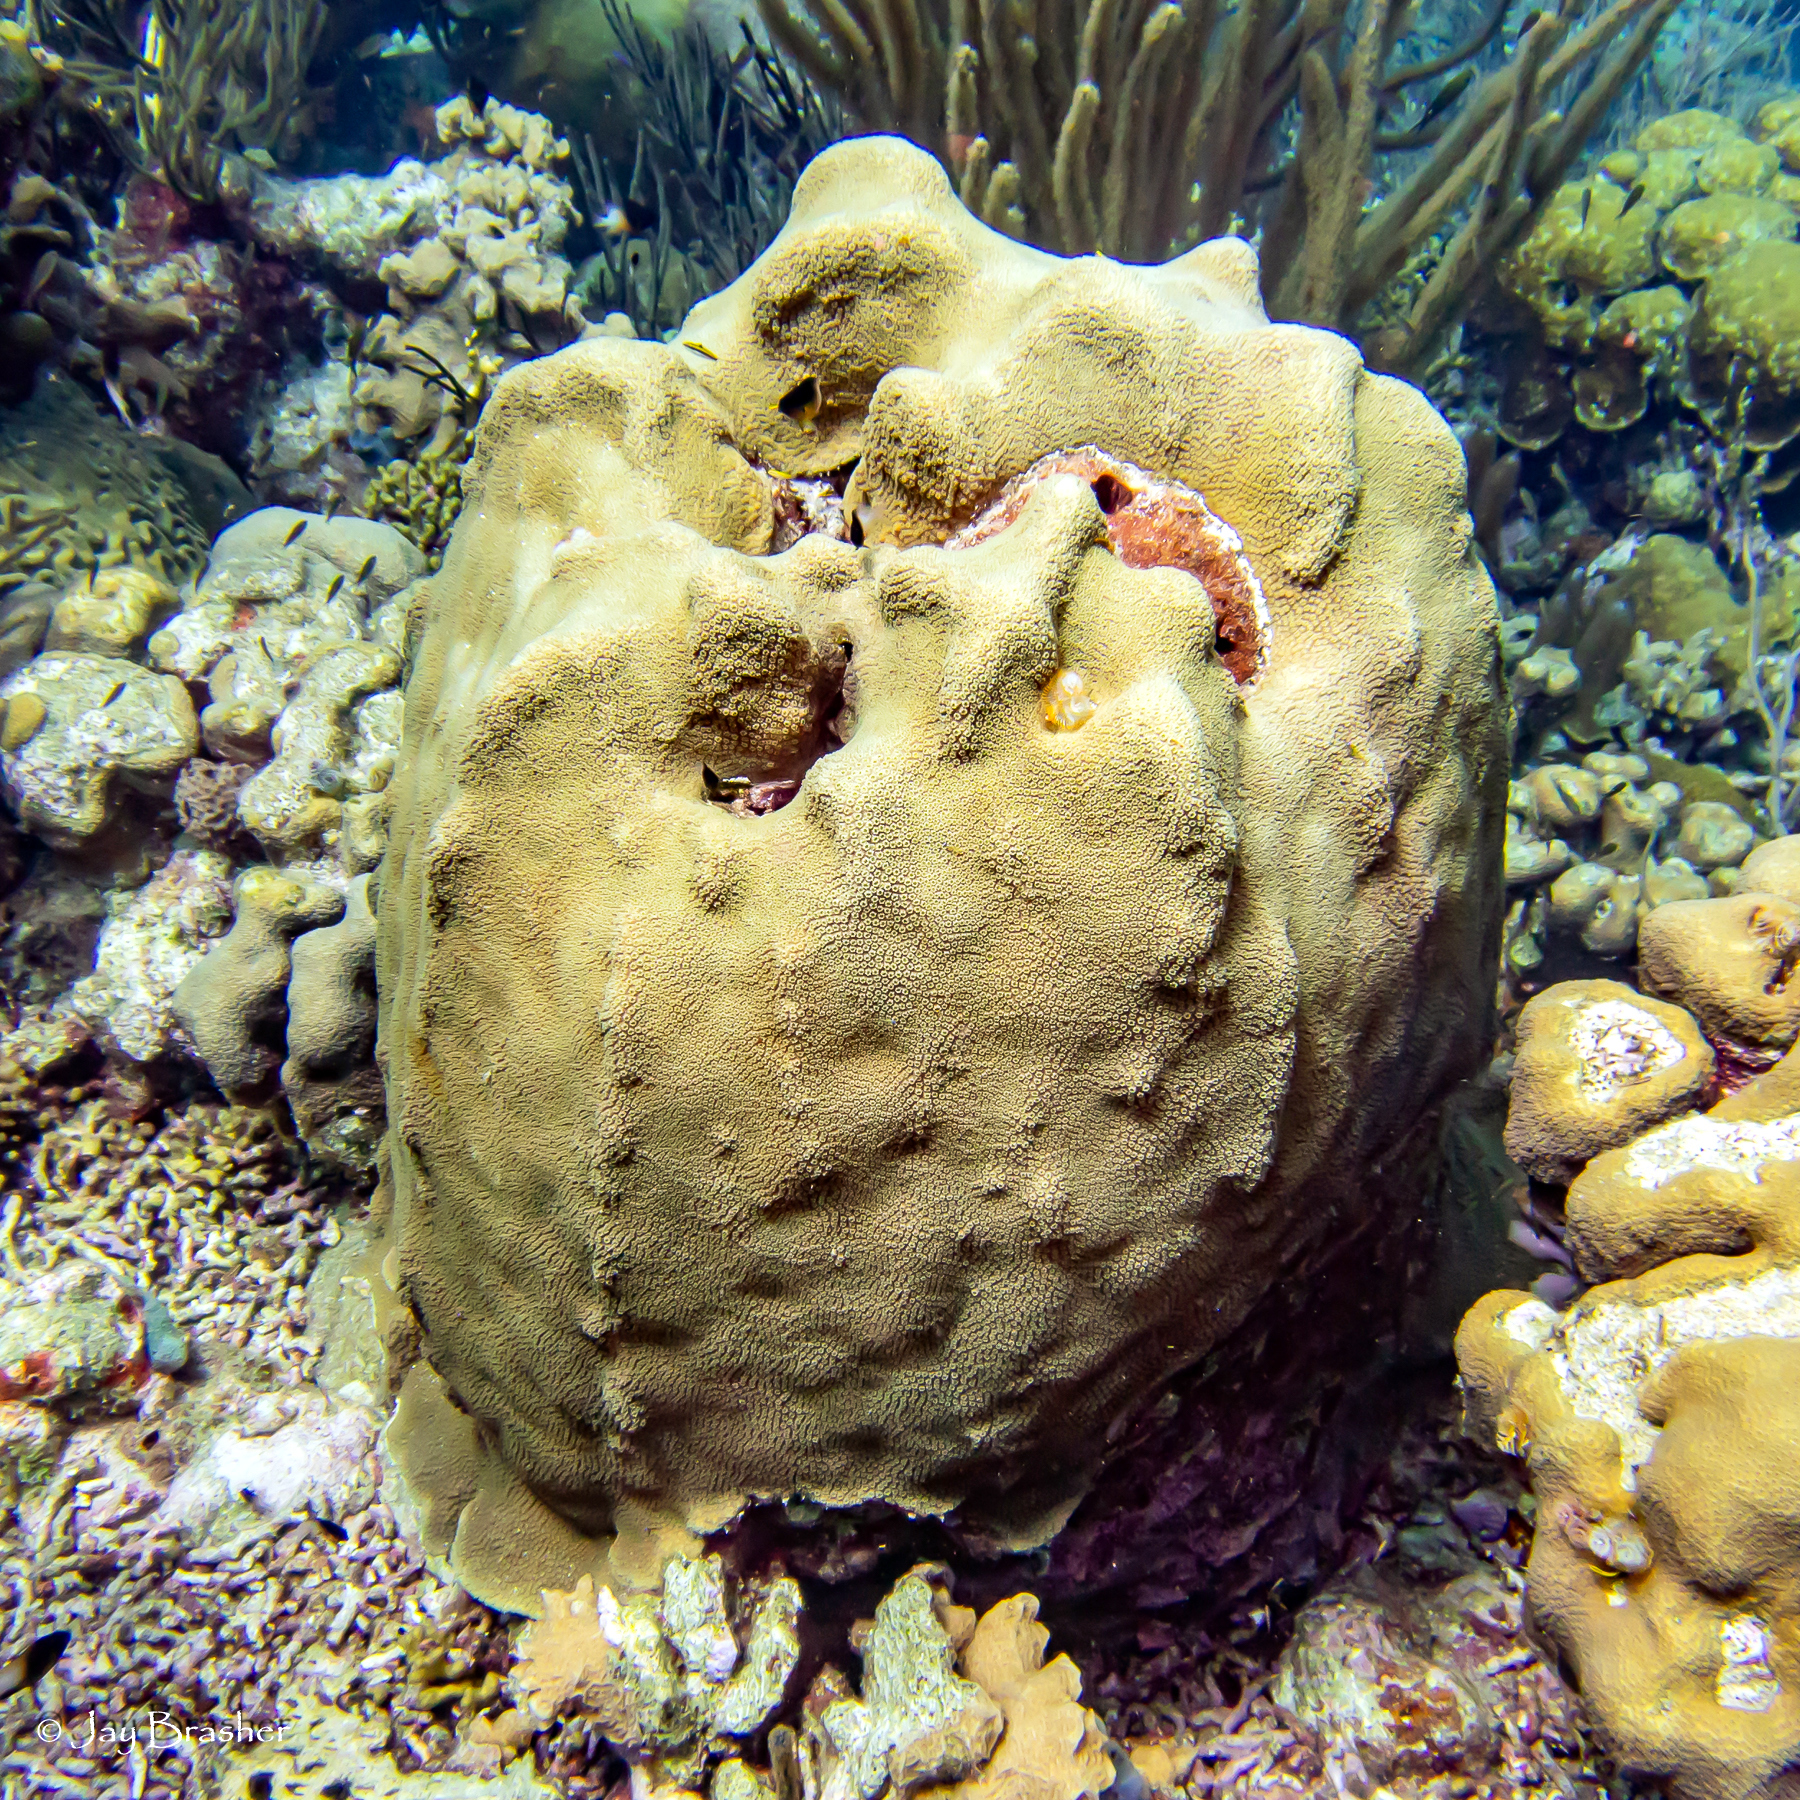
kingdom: Animalia
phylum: Cnidaria
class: Anthozoa
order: Scleractinia
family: Merulinidae
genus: Orbicella
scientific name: Orbicella faveolata
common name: Mountainous star coral
